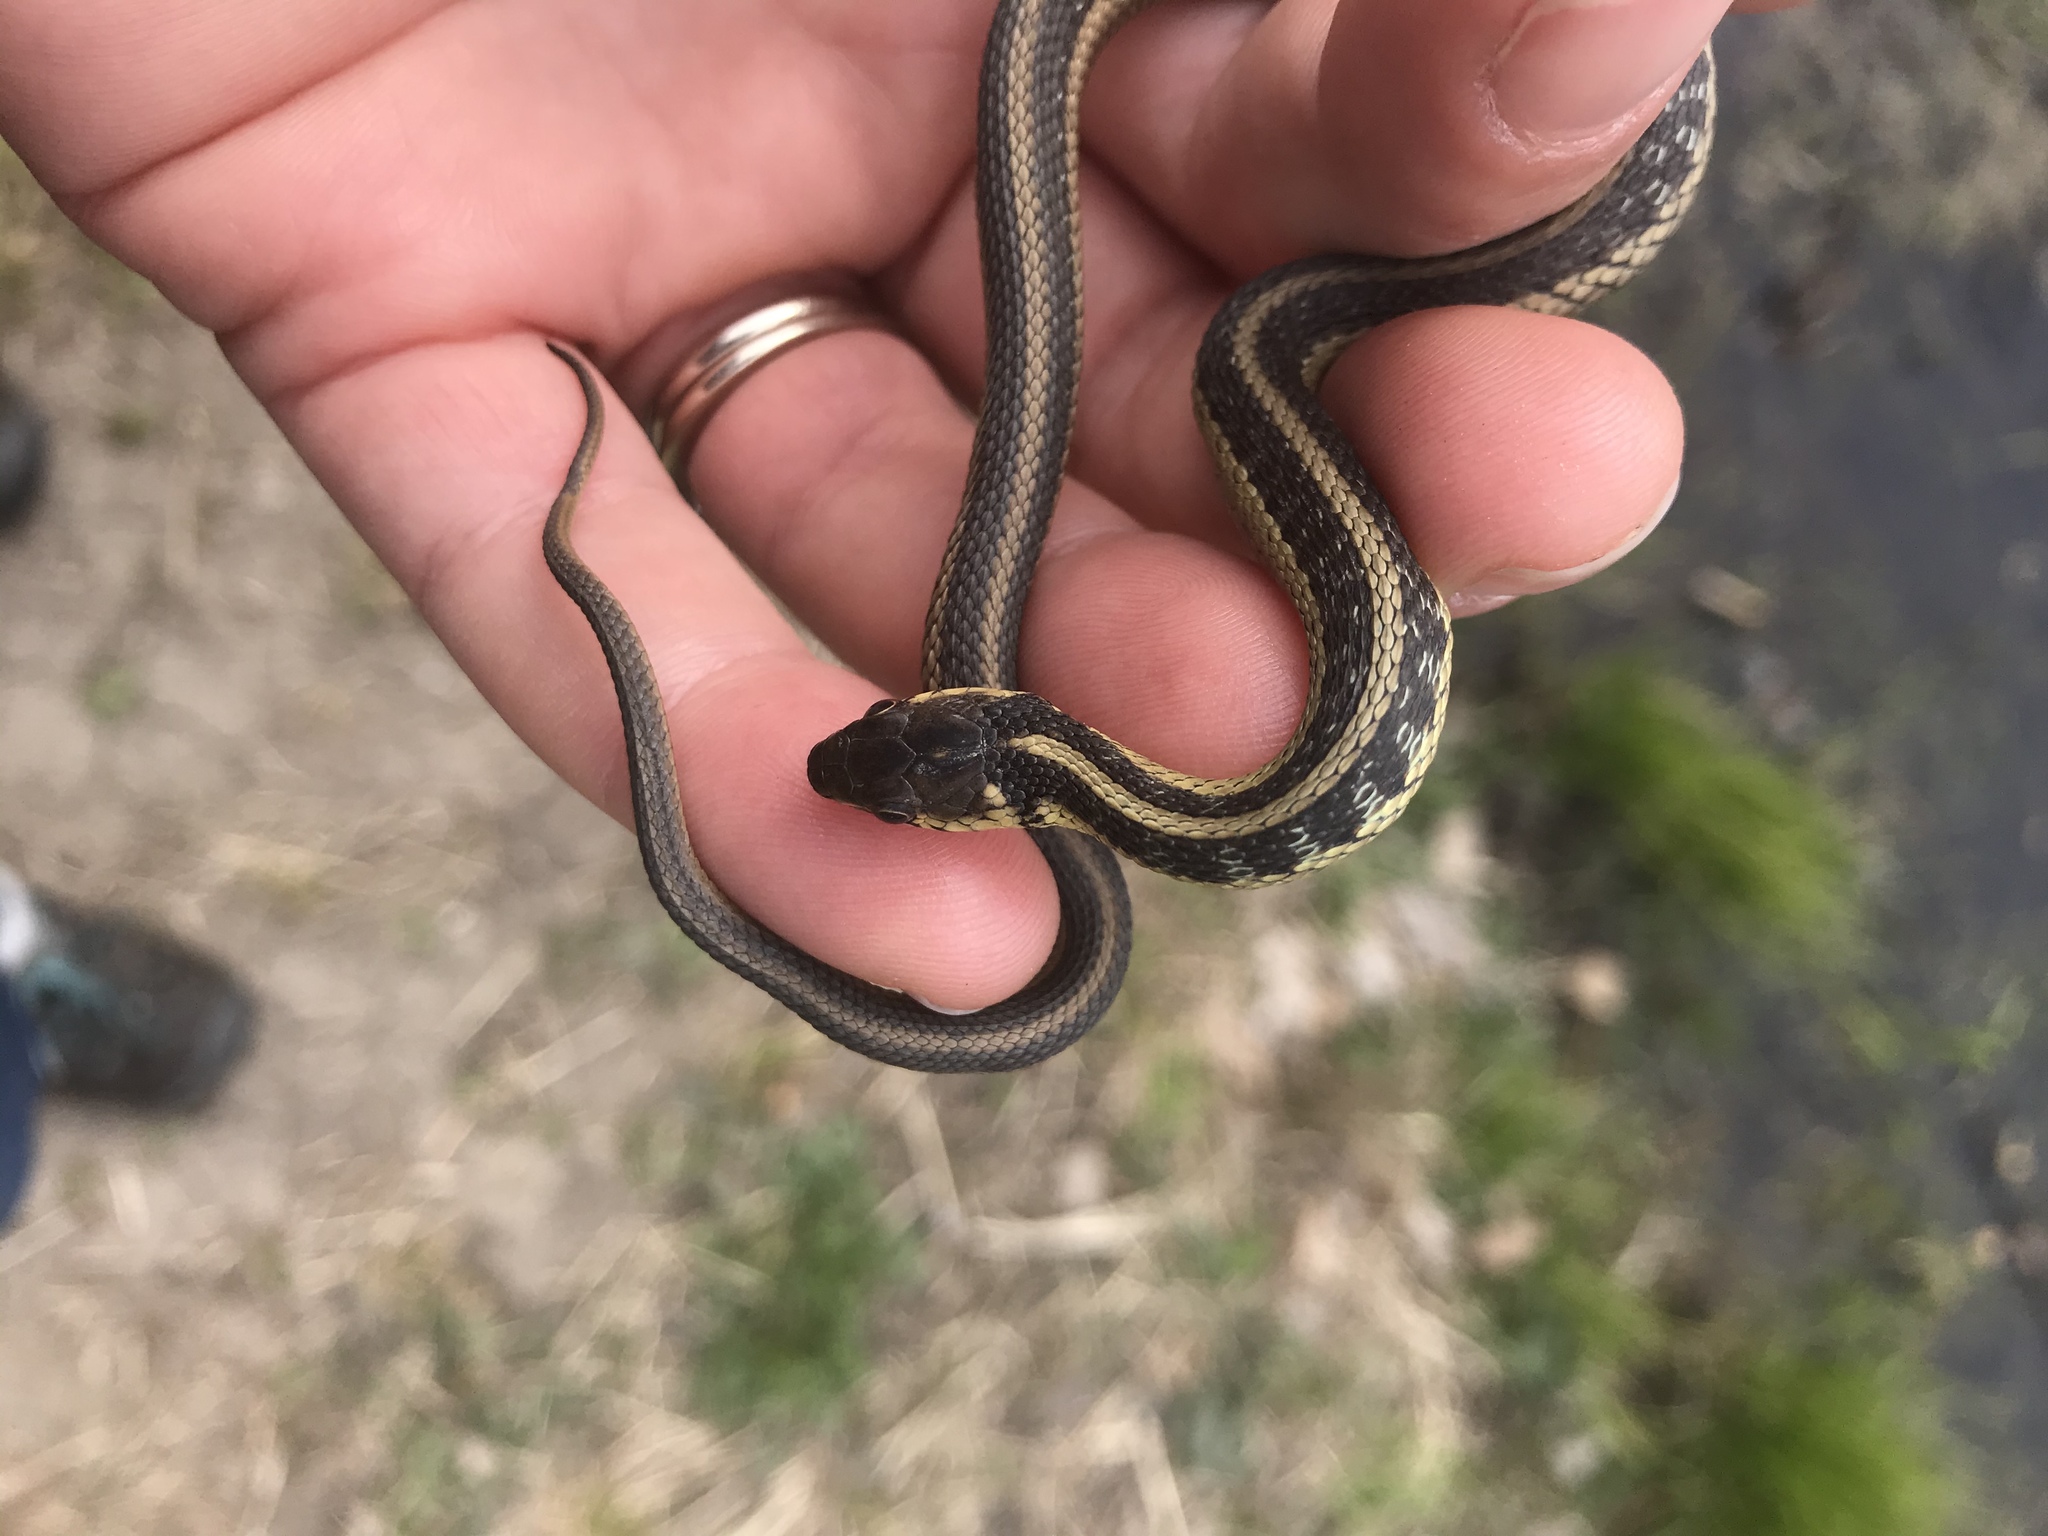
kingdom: Animalia
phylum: Chordata
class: Squamata
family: Colubridae
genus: Thamnophis
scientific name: Thamnophis sirtalis
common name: Common garter snake
